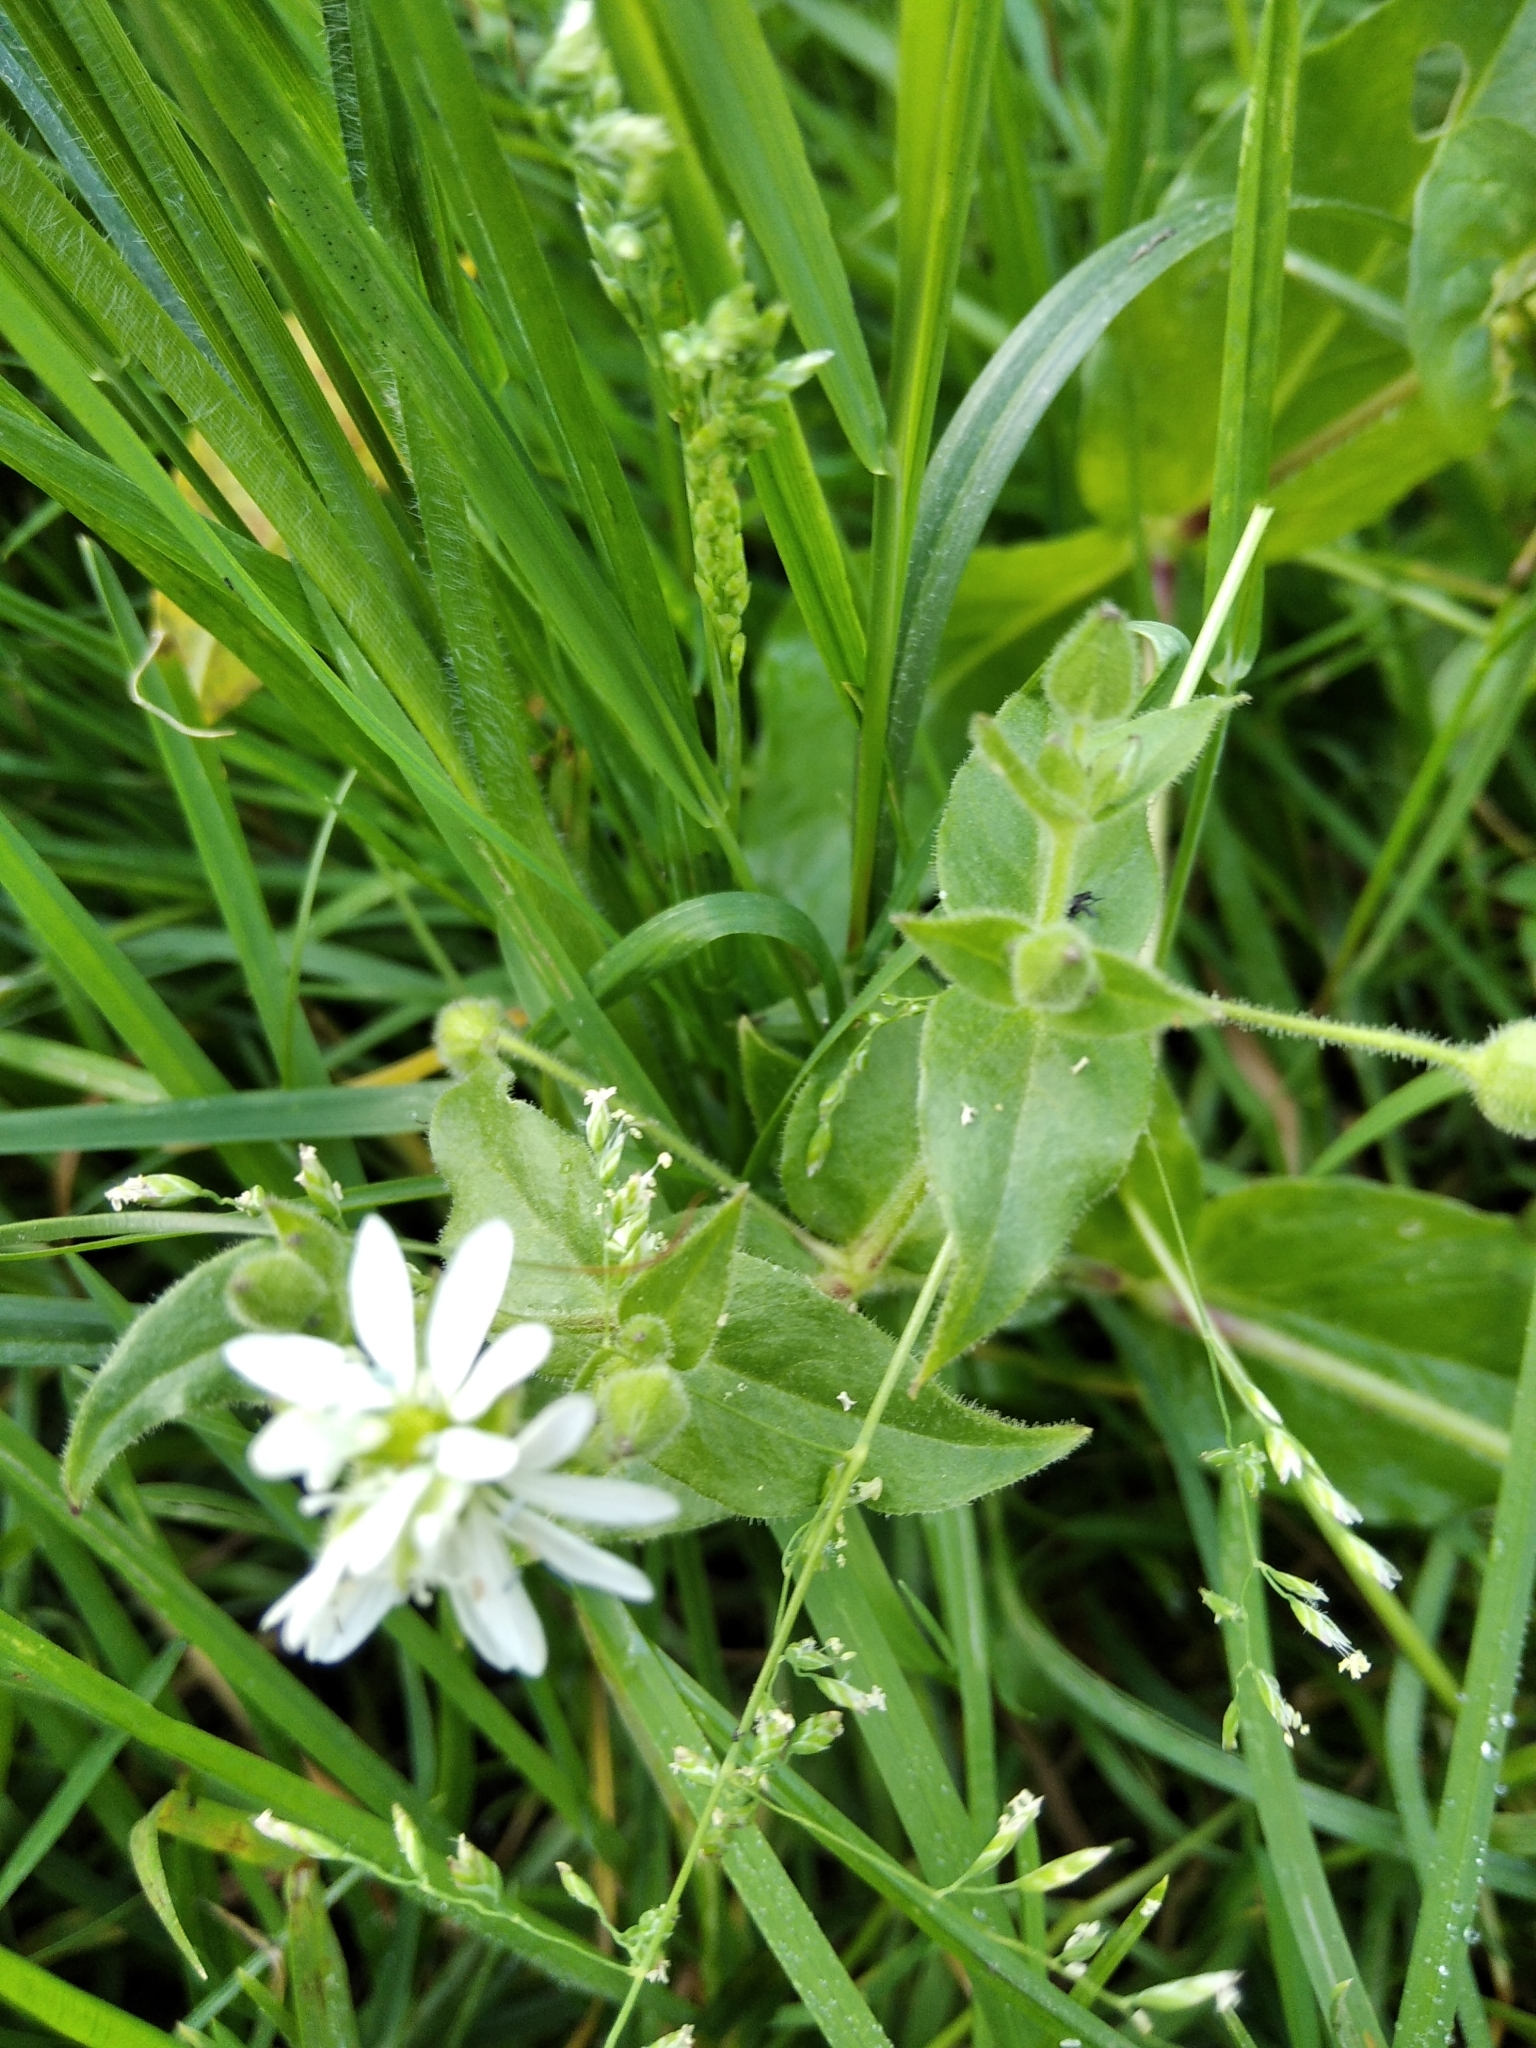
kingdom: Plantae
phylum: Tracheophyta
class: Magnoliopsida
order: Caryophyllales
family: Caryophyllaceae
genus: Stellaria
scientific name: Stellaria aquatica
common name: Water chickweed
